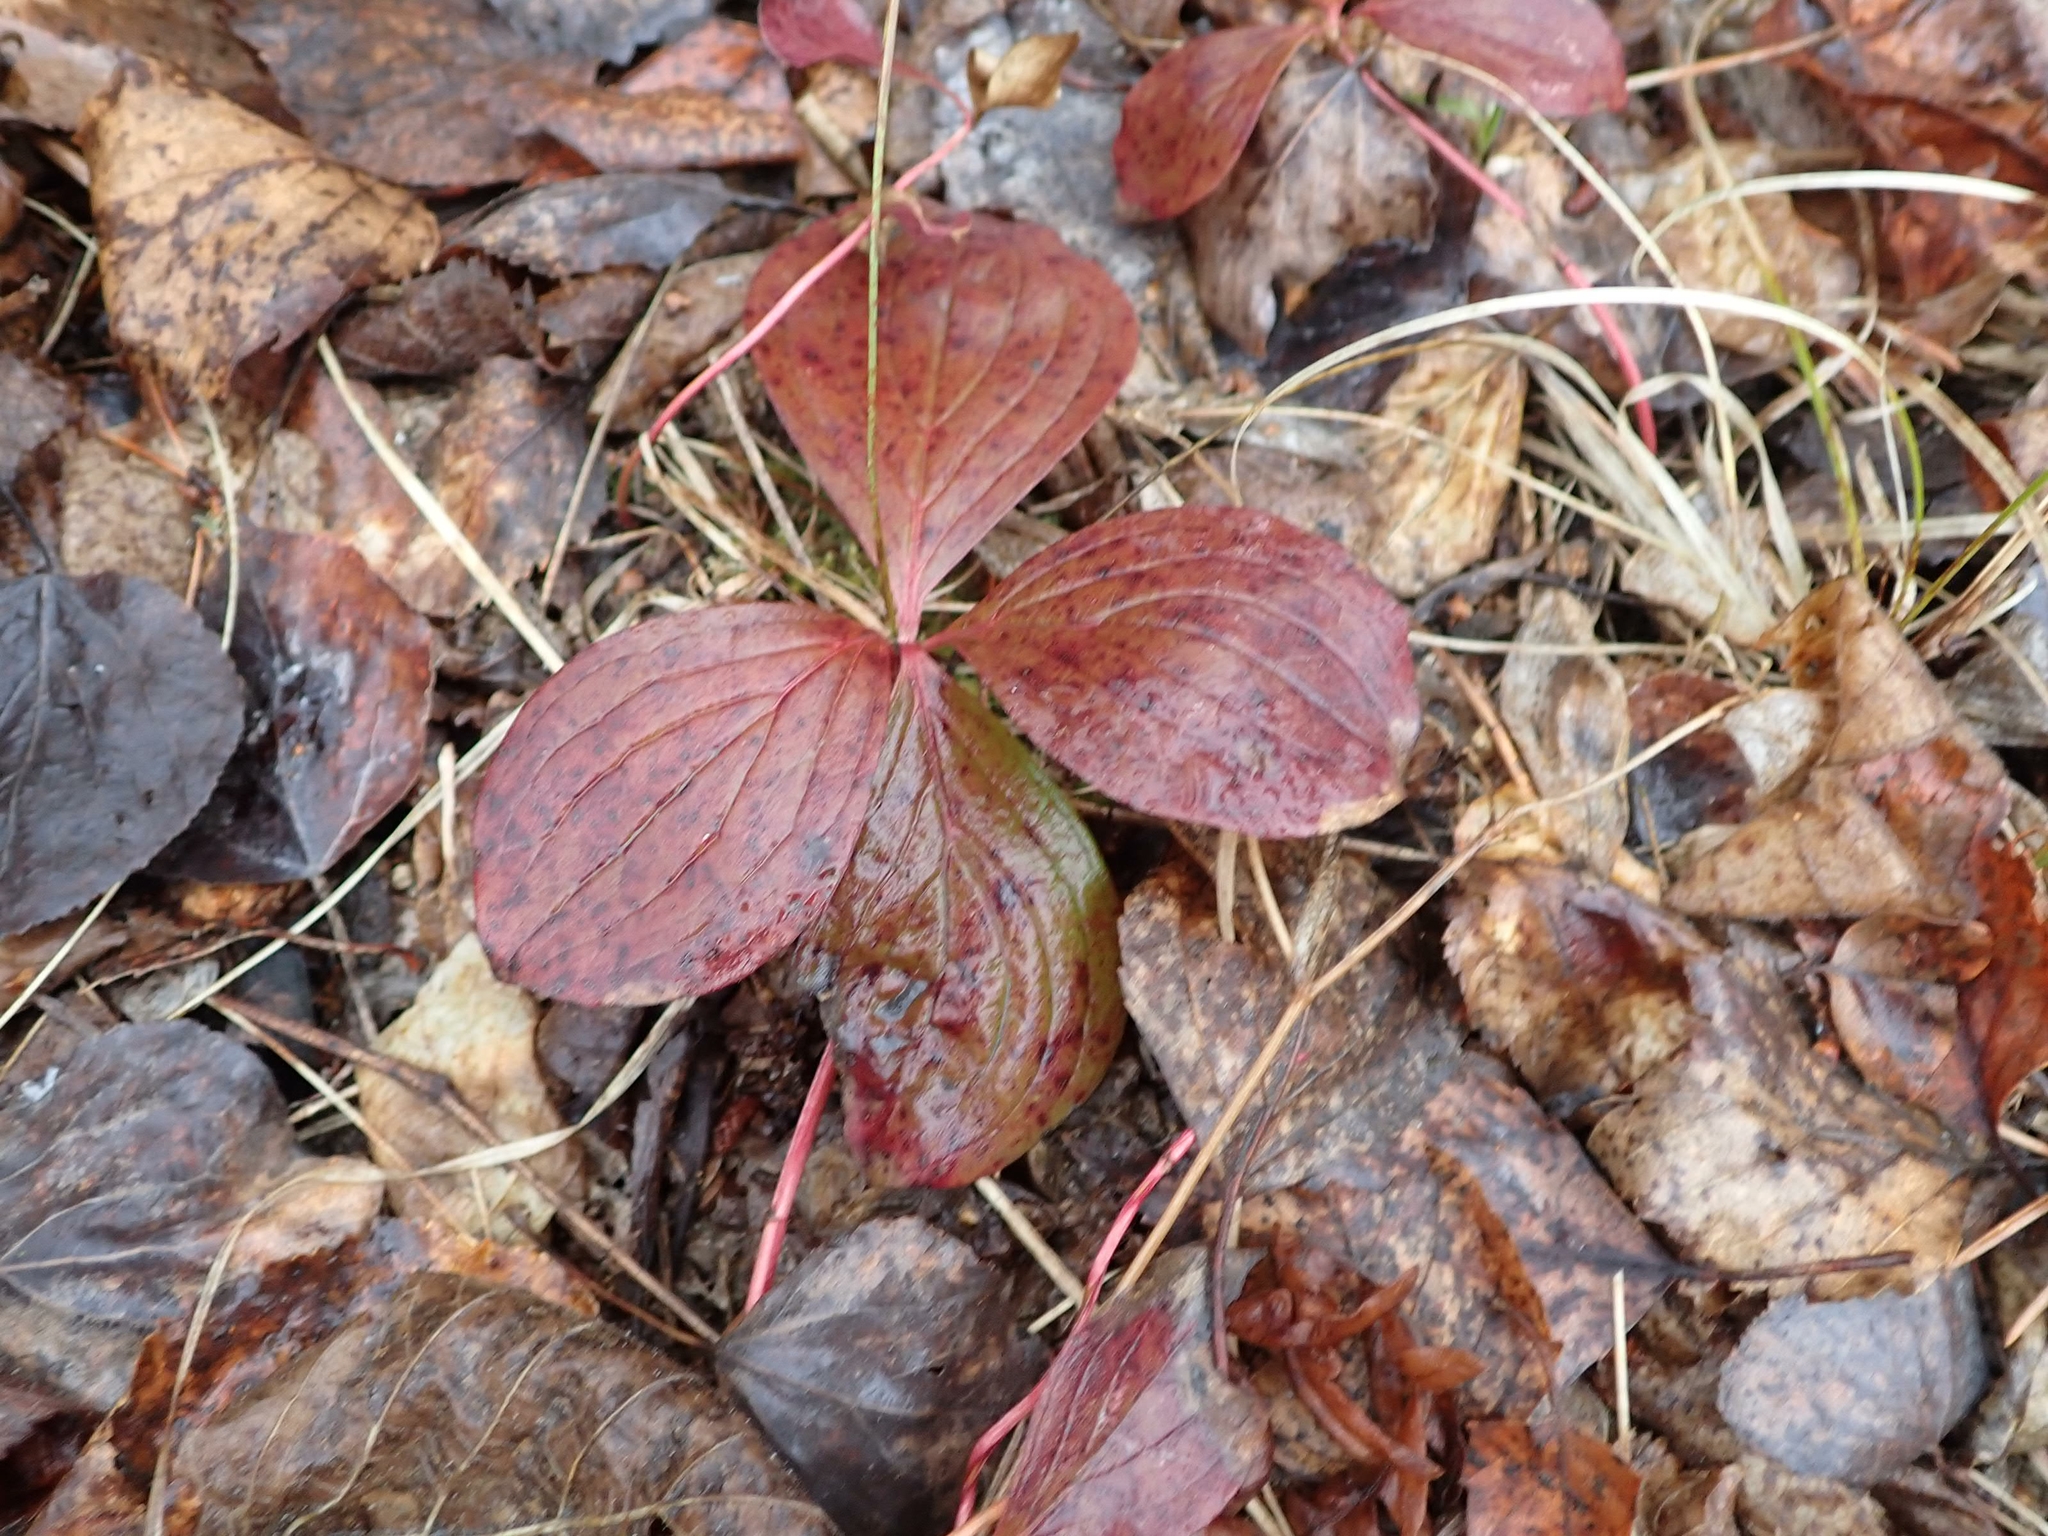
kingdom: Plantae
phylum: Tracheophyta
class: Magnoliopsida
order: Cornales
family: Cornaceae
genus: Cornus
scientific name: Cornus canadensis
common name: Creeping dogwood
